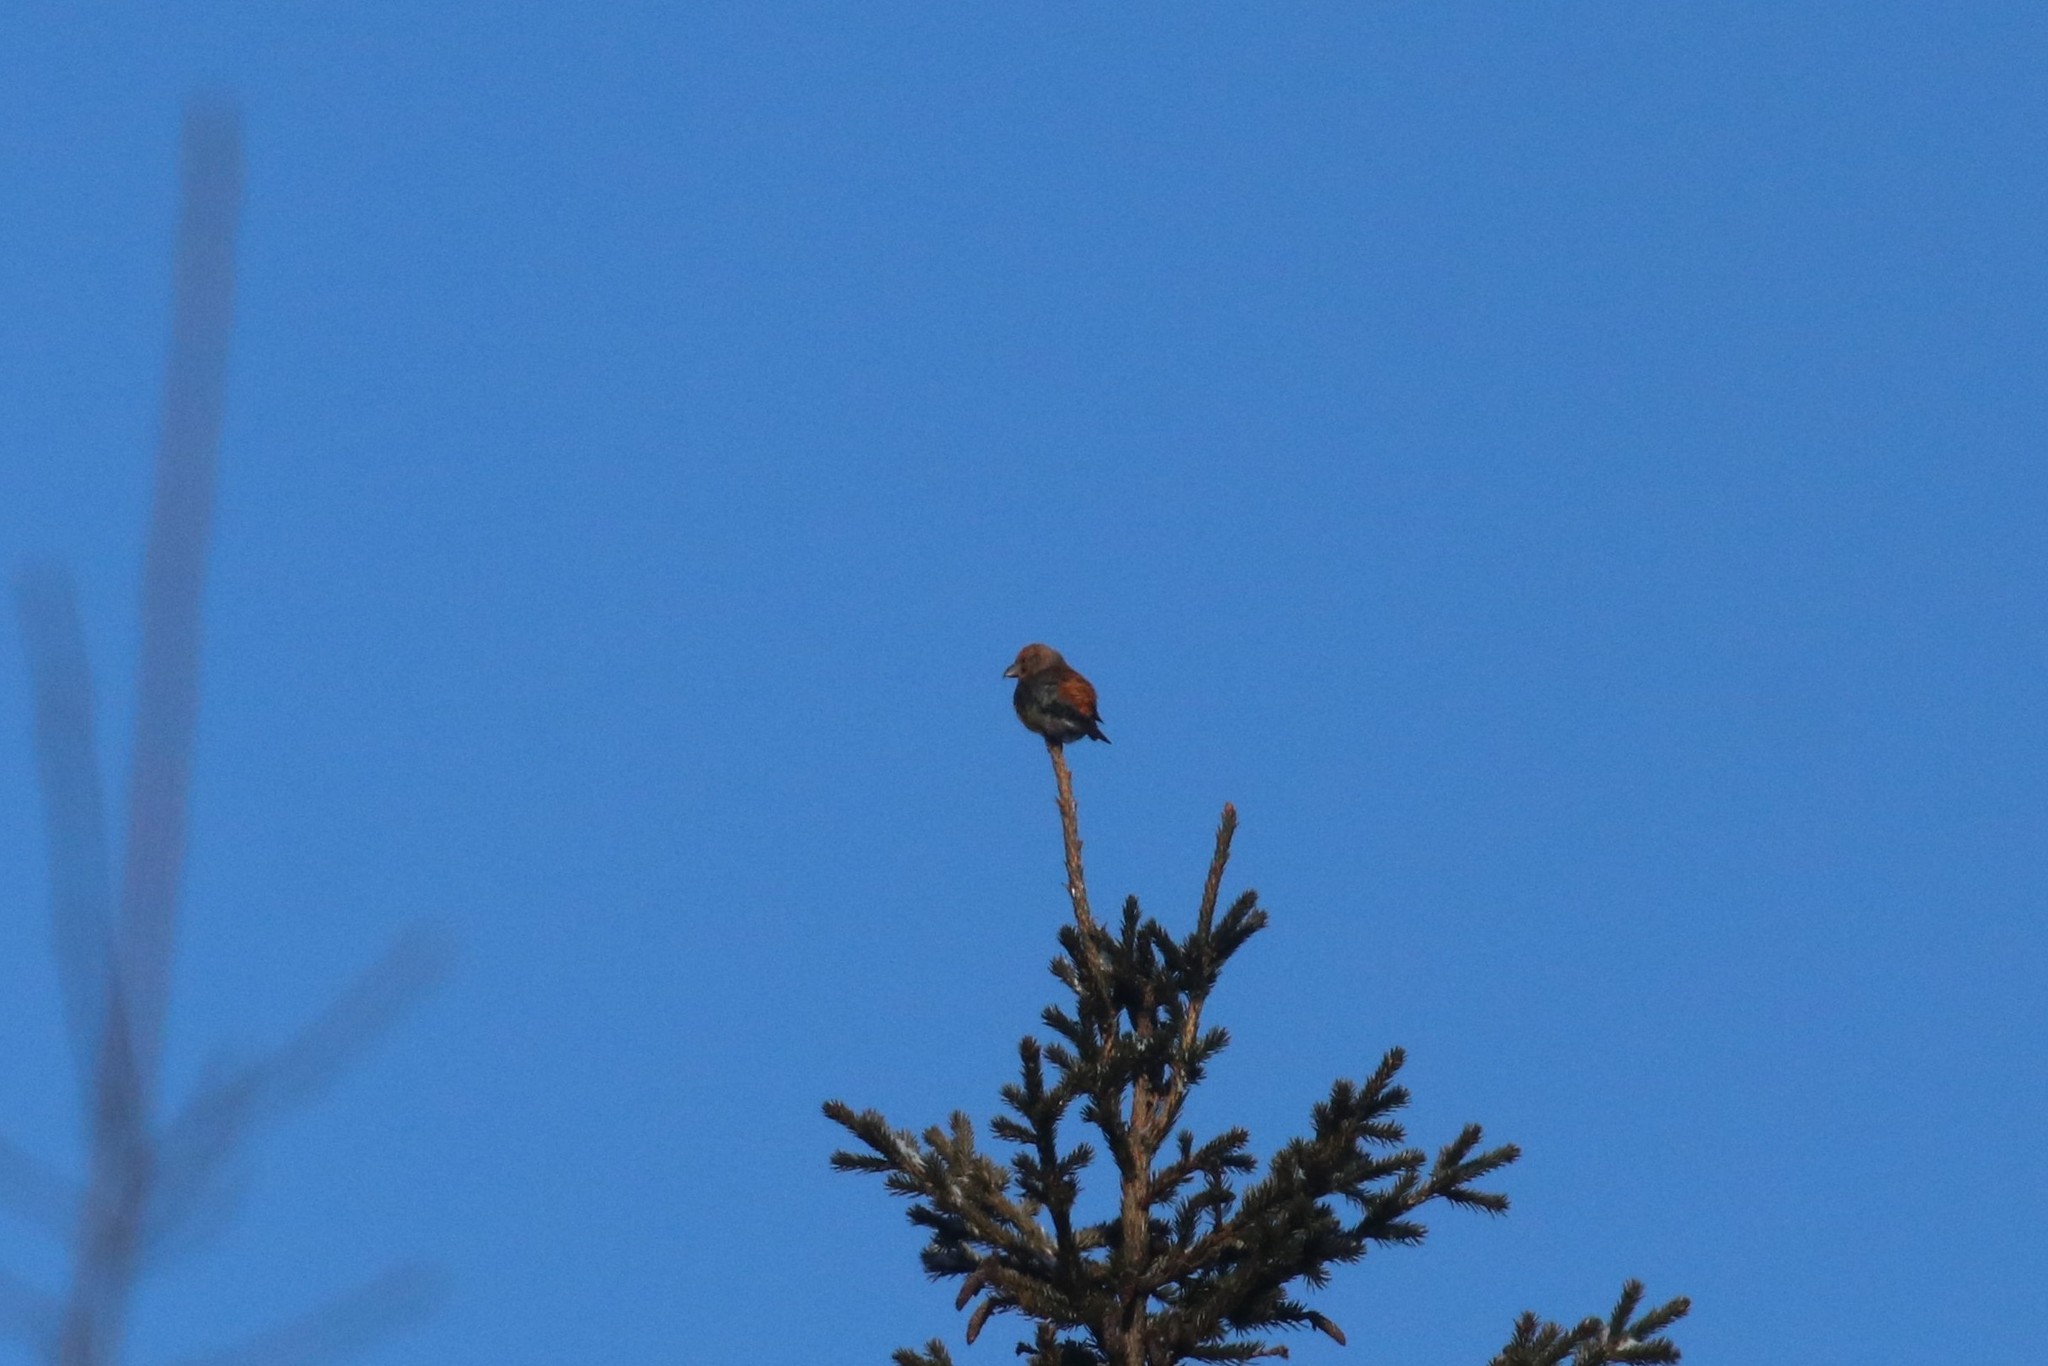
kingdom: Animalia
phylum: Chordata
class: Aves
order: Passeriformes
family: Fringillidae
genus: Loxia
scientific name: Loxia curvirostra
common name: Red crossbill
